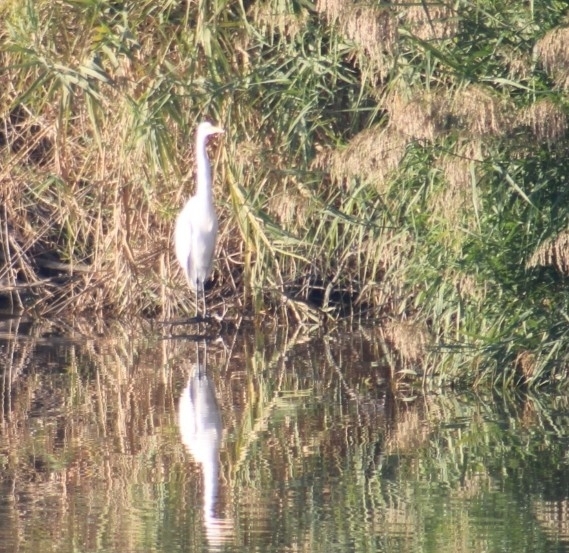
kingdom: Animalia
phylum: Chordata
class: Aves
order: Pelecaniformes
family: Ardeidae
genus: Ardea
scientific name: Ardea alba
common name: Great egret
